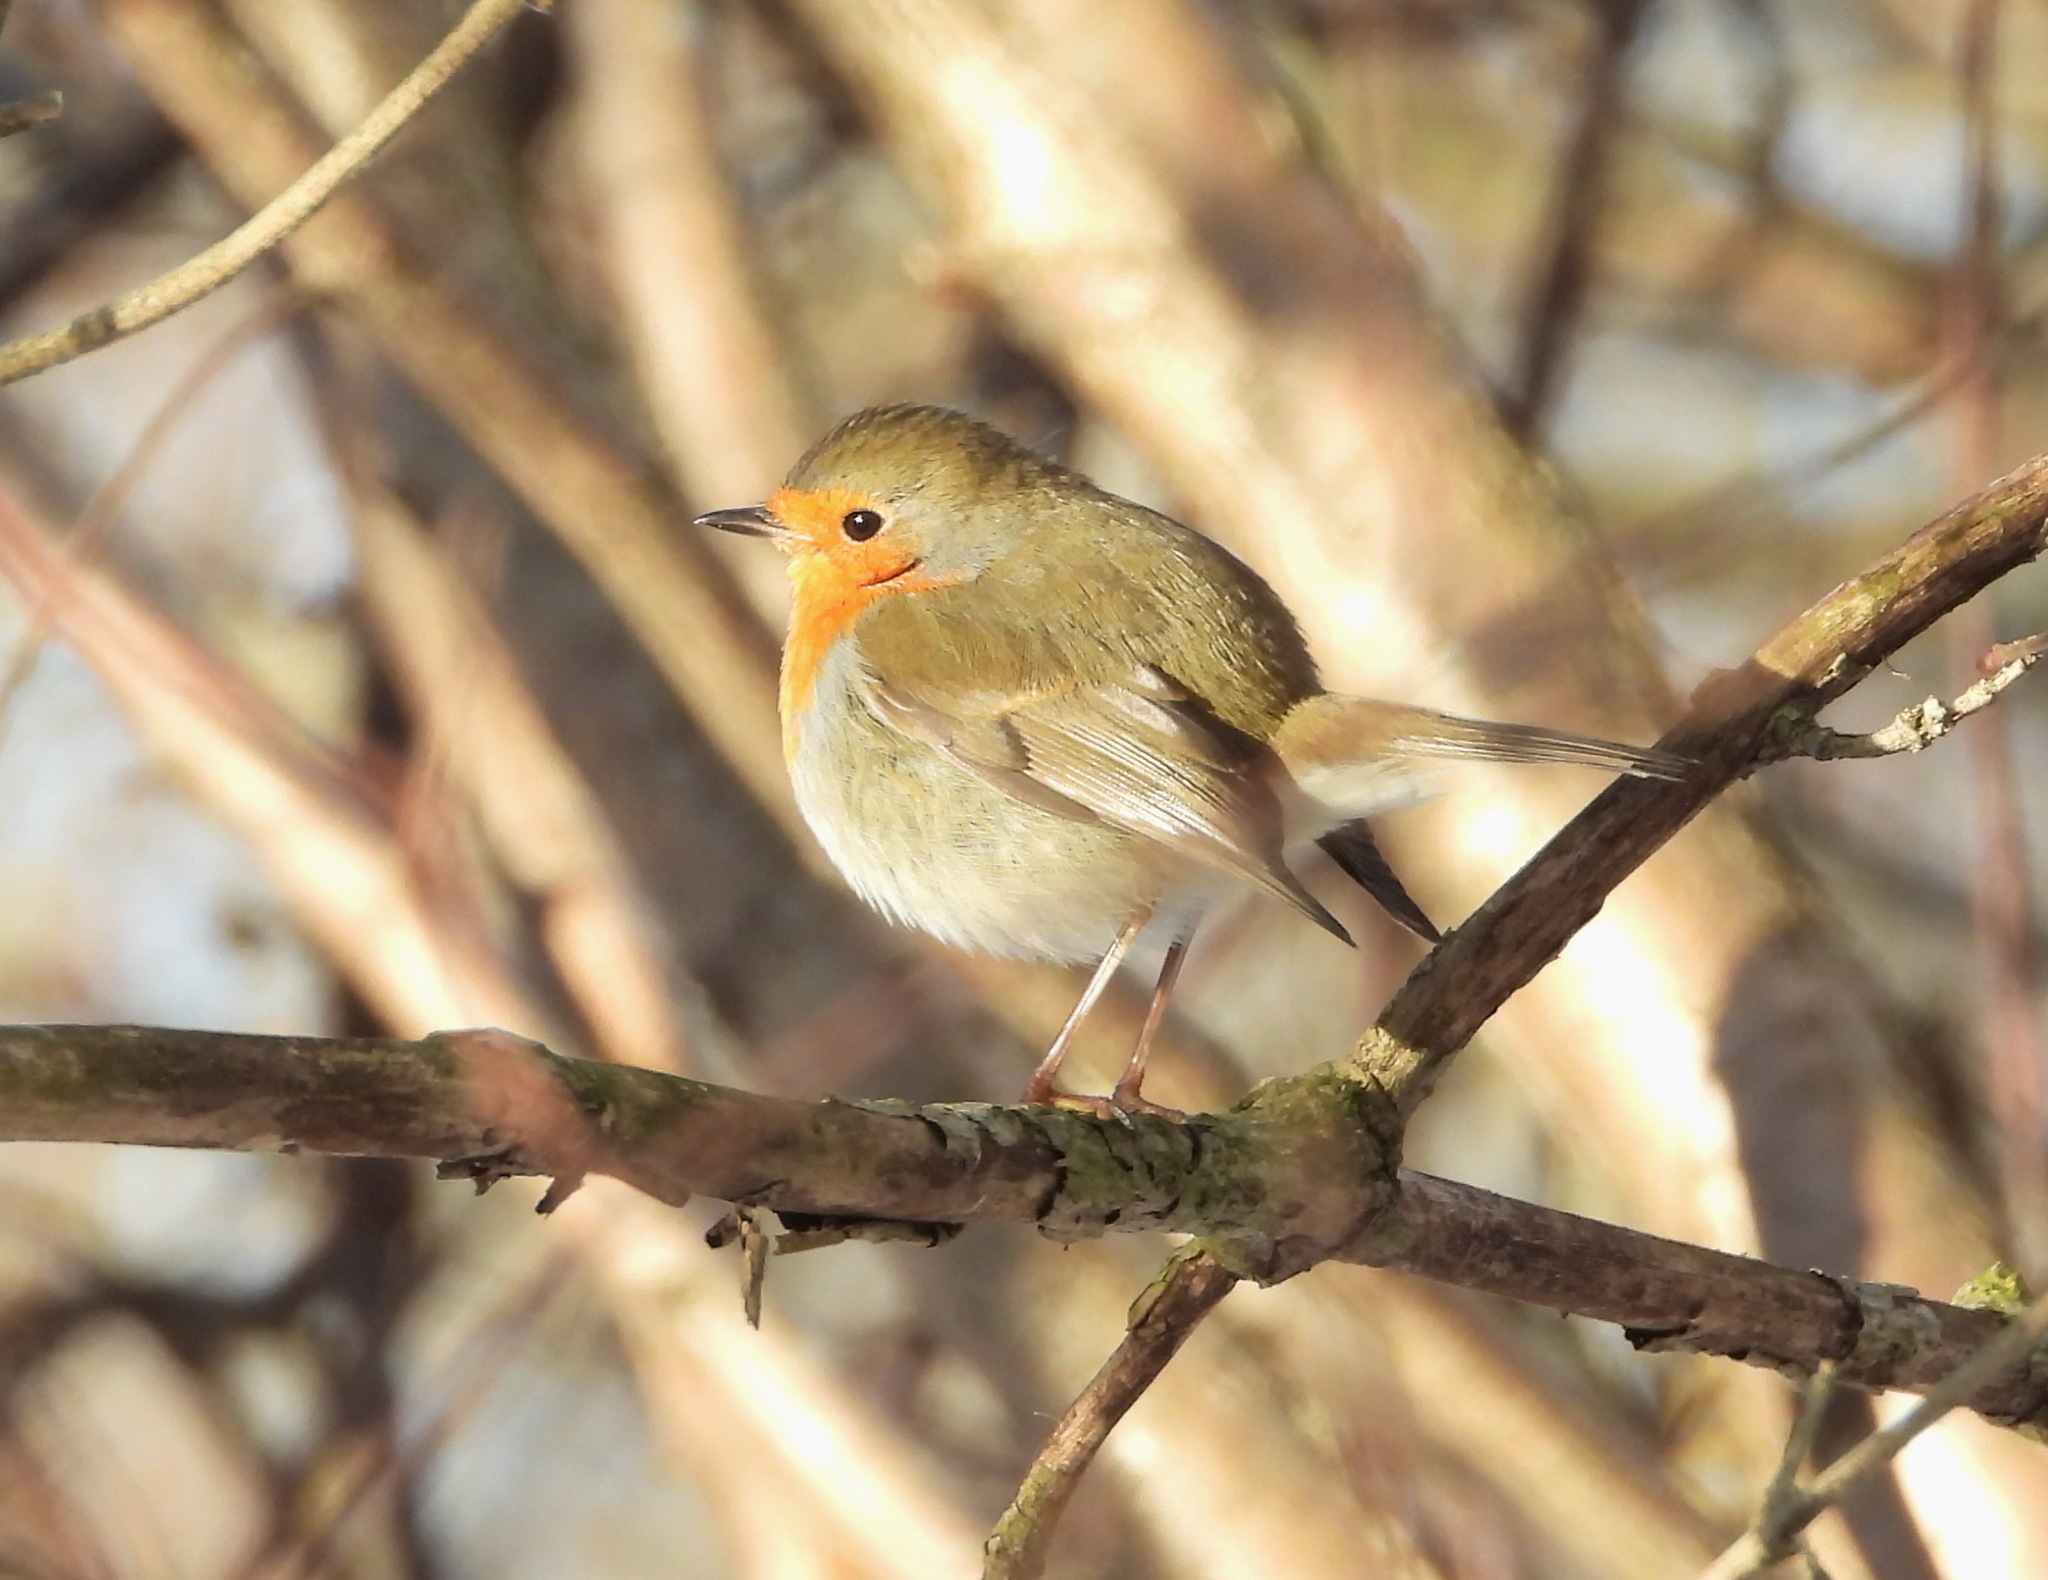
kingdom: Animalia
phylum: Chordata
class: Aves
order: Passeriformes
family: Muscicapidae
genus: Erithacus
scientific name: Erithacus rubecula
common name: European robin
